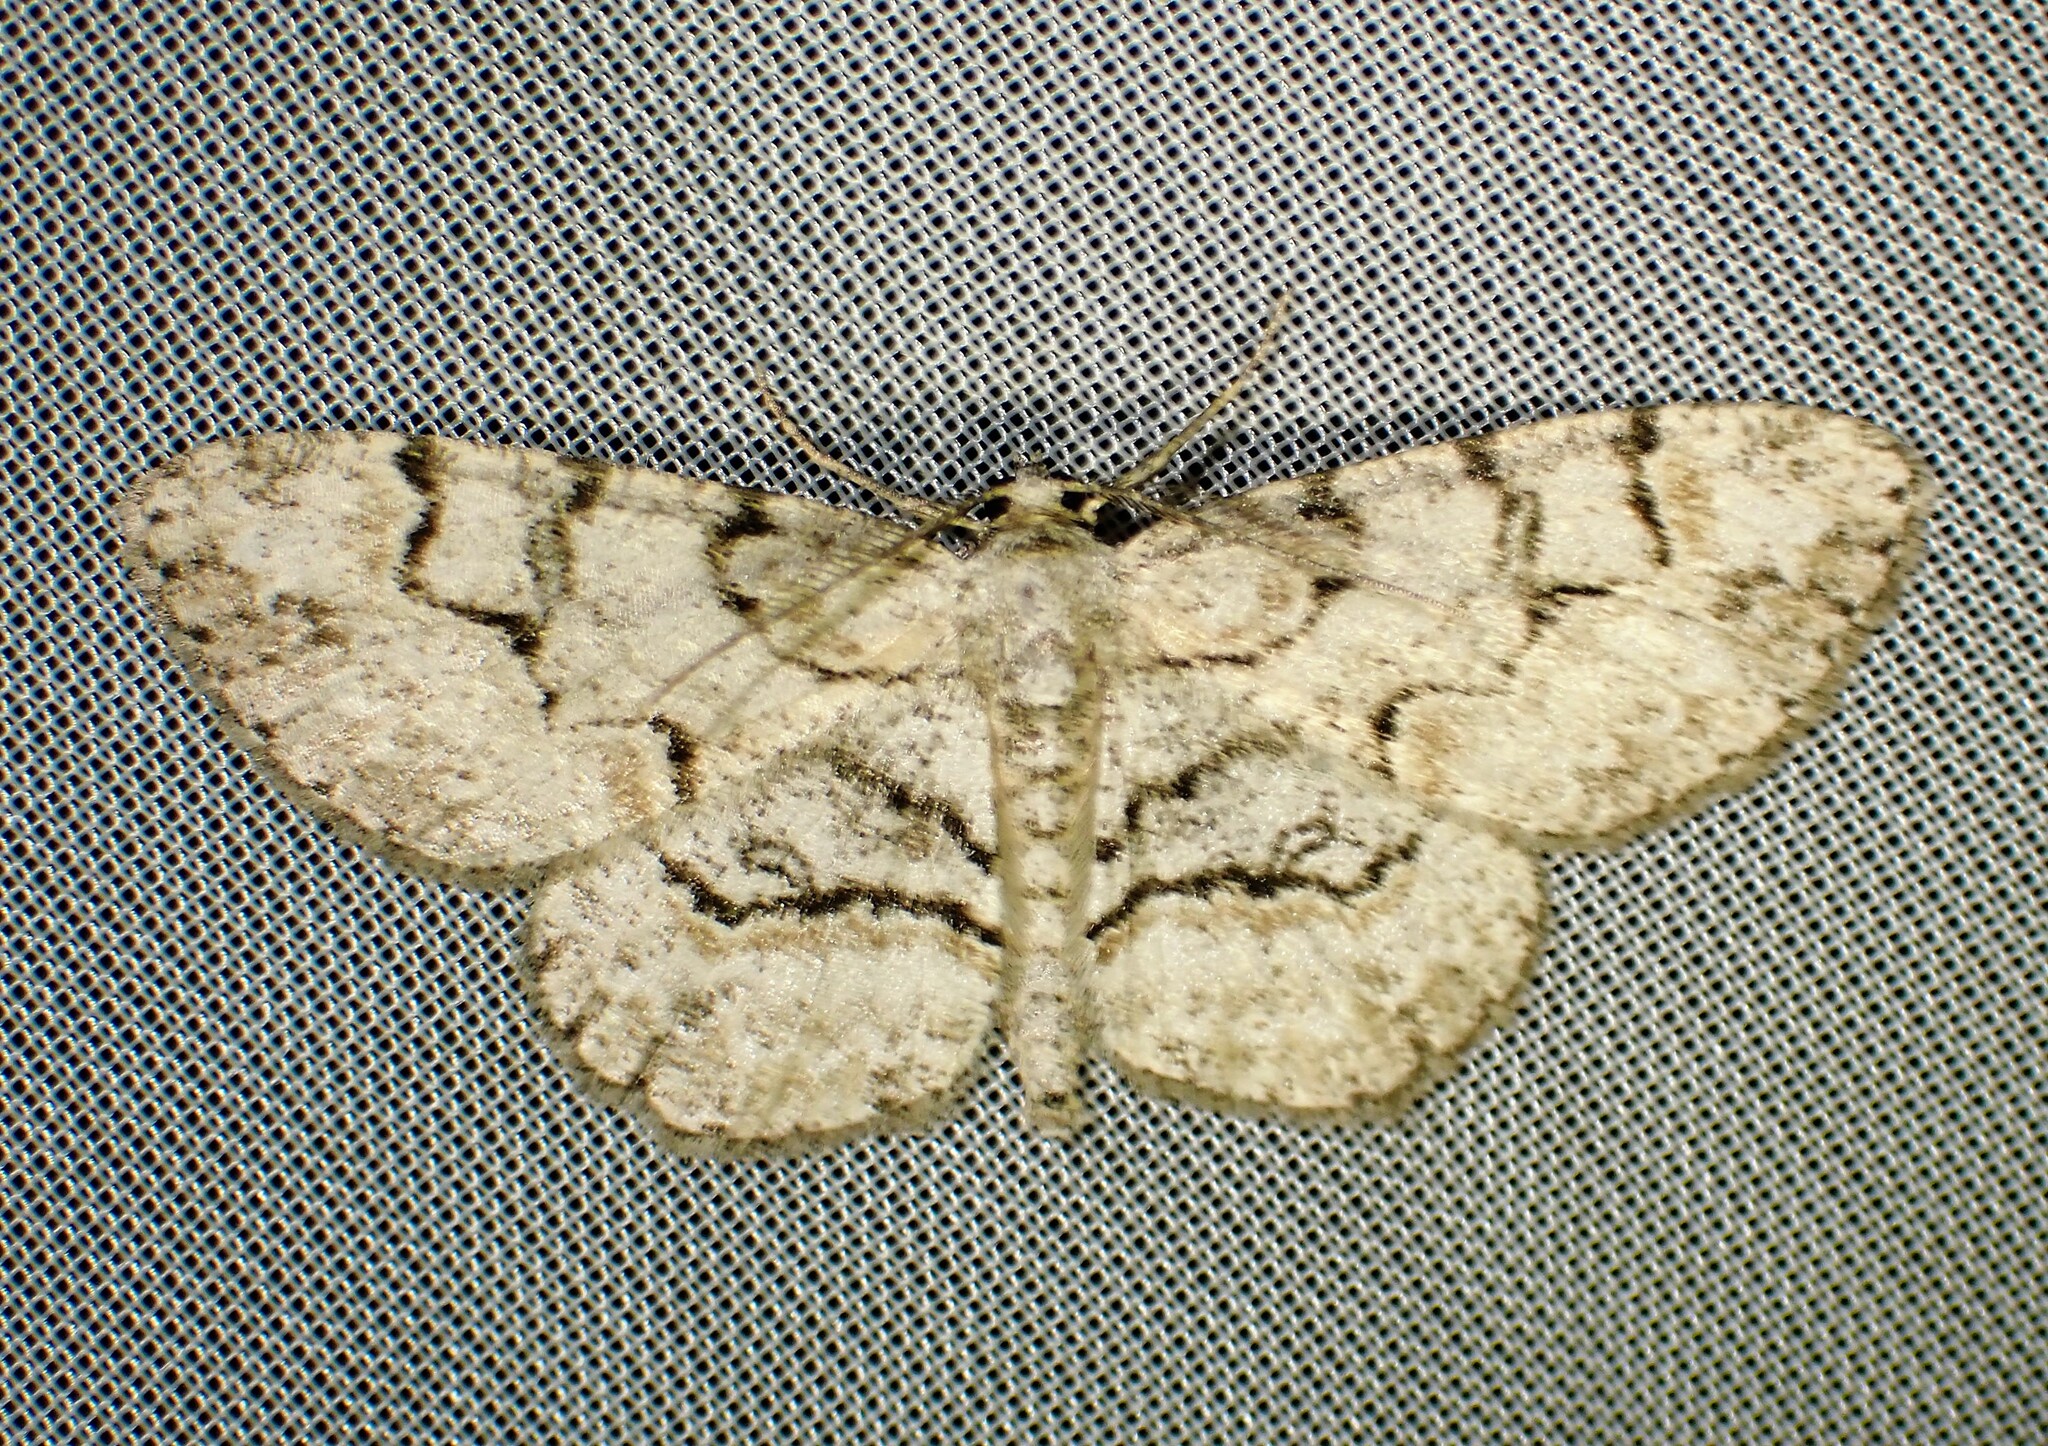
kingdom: Animalia
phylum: Arthropoda
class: Insecta
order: Lepidoptera
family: Geometridae
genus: Iridopsis
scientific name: Iridopsis ephyraria
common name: Pale-winged gray
